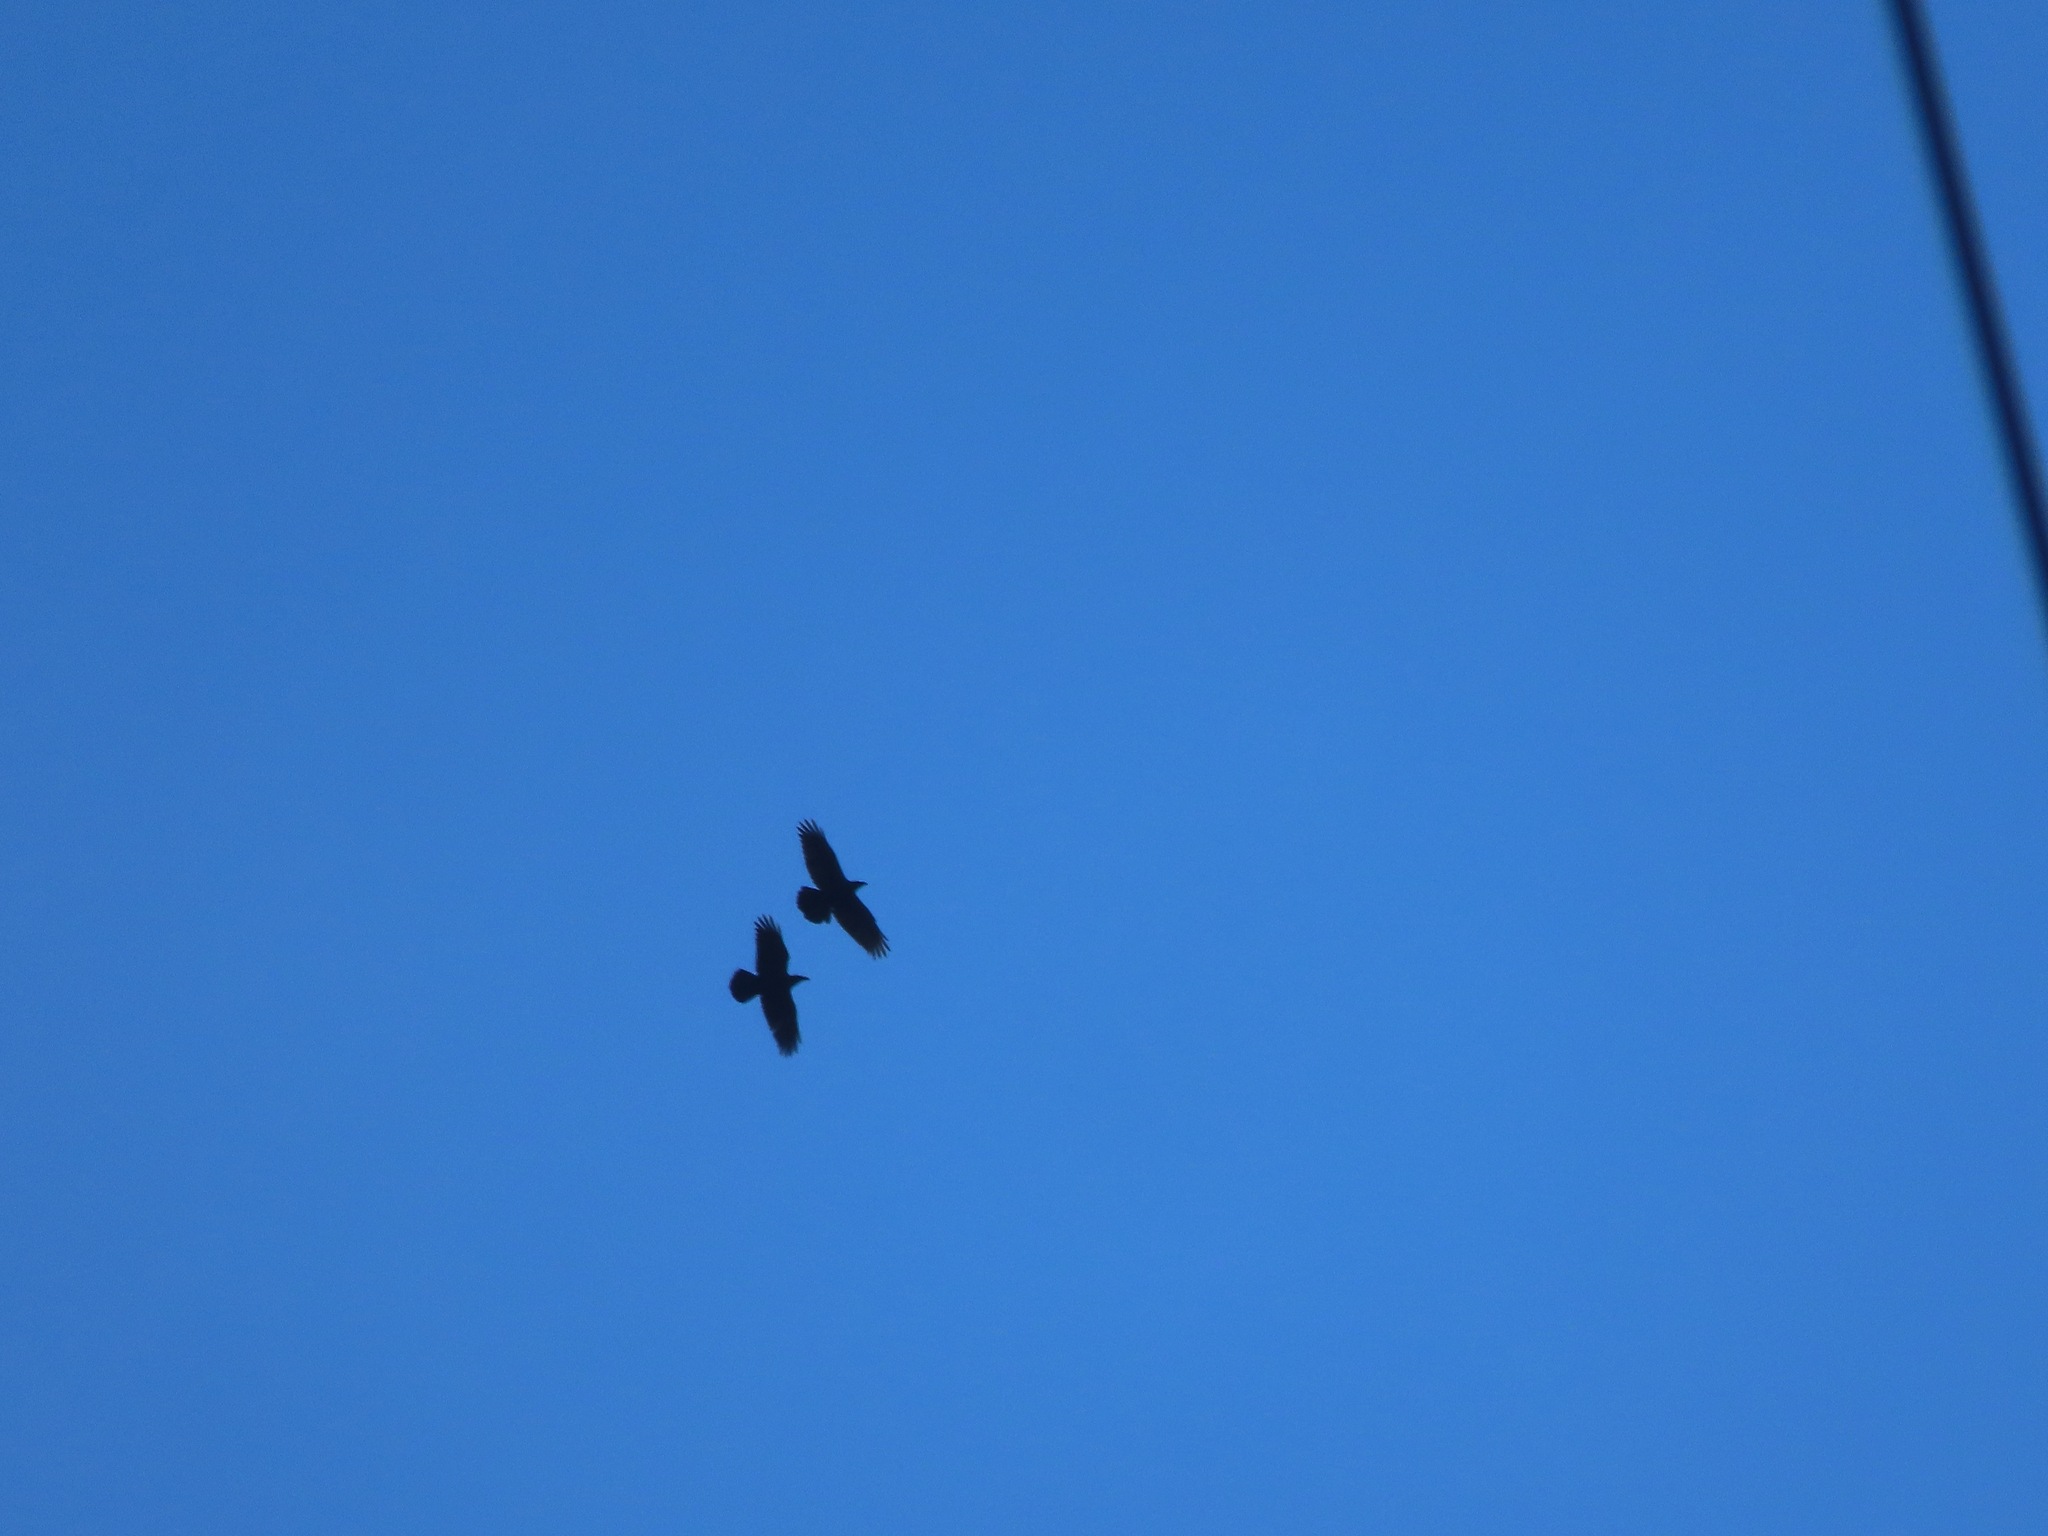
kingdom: Animalia
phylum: Chordata
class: Aves
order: Passeriformes
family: Corvidae
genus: Corvus
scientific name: Corvus corax
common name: Common raven
